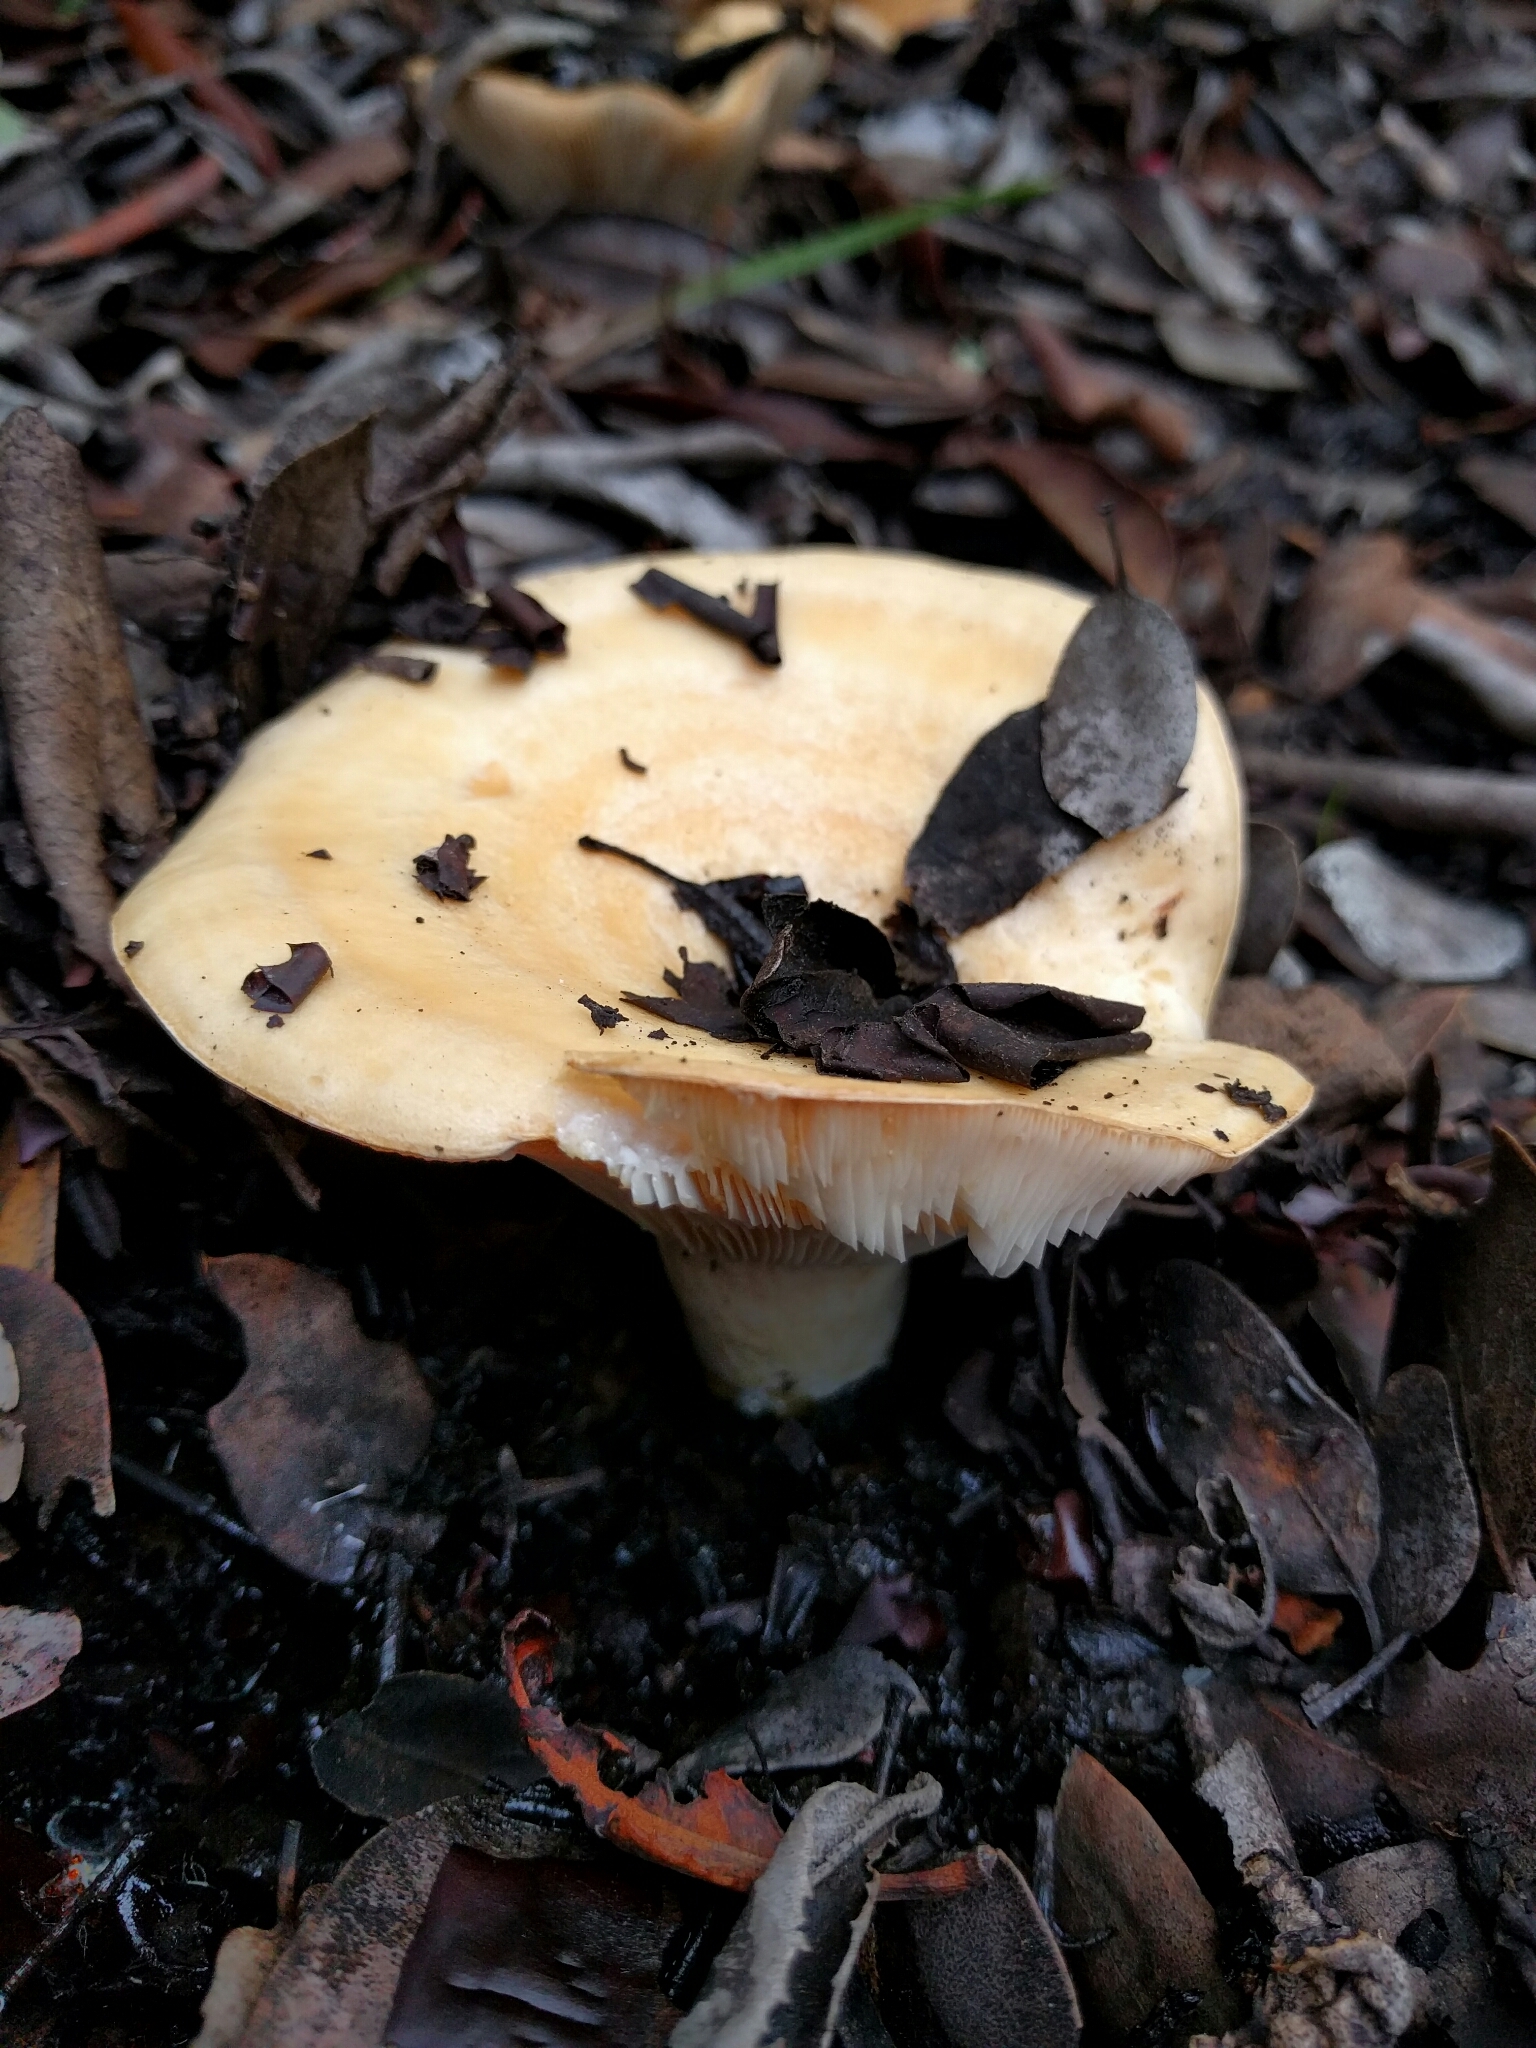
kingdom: Fungi
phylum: Basidiomycota
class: Agaricomycetes
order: Russulales
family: Russulaceae
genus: Lactarius
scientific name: Lactarius alnicola
